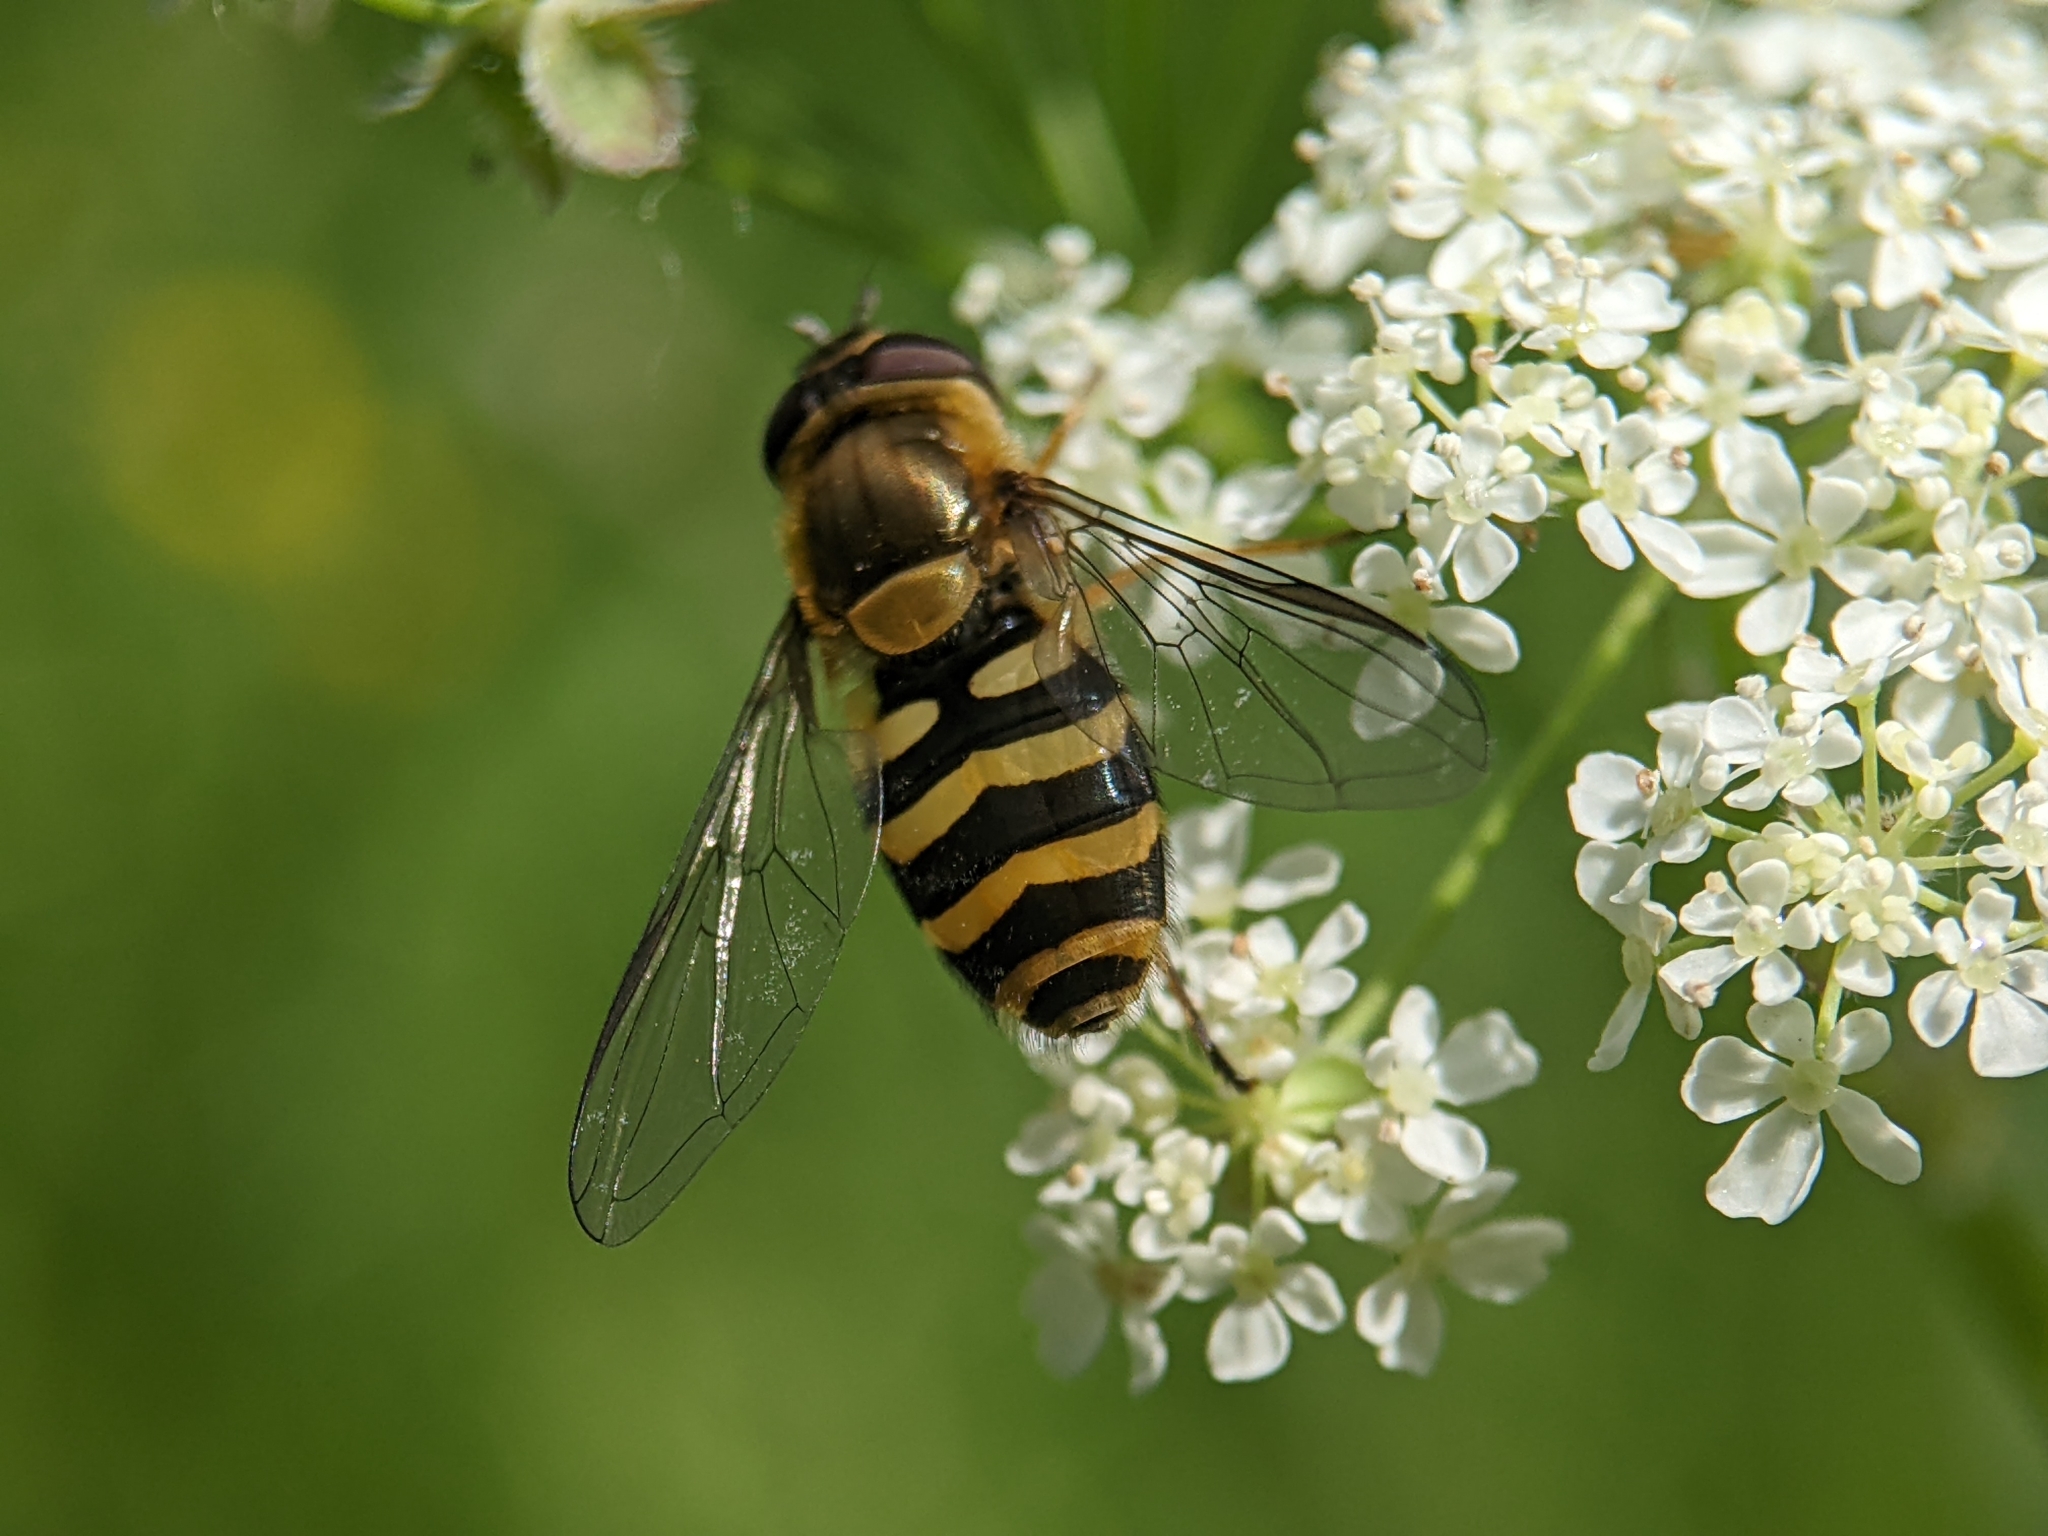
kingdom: Animalia
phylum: Arthropoda
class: Insecta
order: Diptera
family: Syrphidae
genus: Syrphus
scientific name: Syrphus
